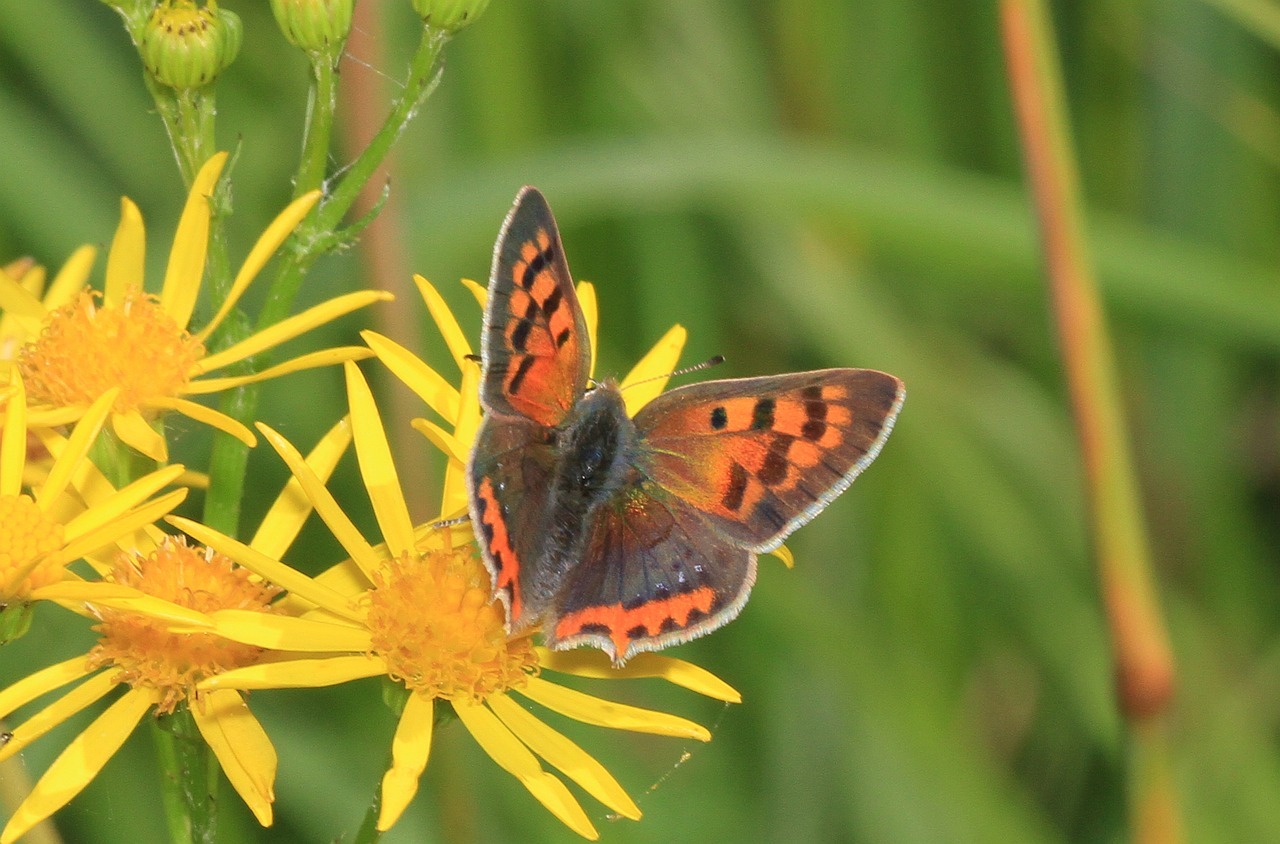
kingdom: Animalia
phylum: Arthropoda
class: Insecta
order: Lepidoptera
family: Lycaenidae
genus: Lycaena
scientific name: Lycaena phlaeas
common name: Small copper
